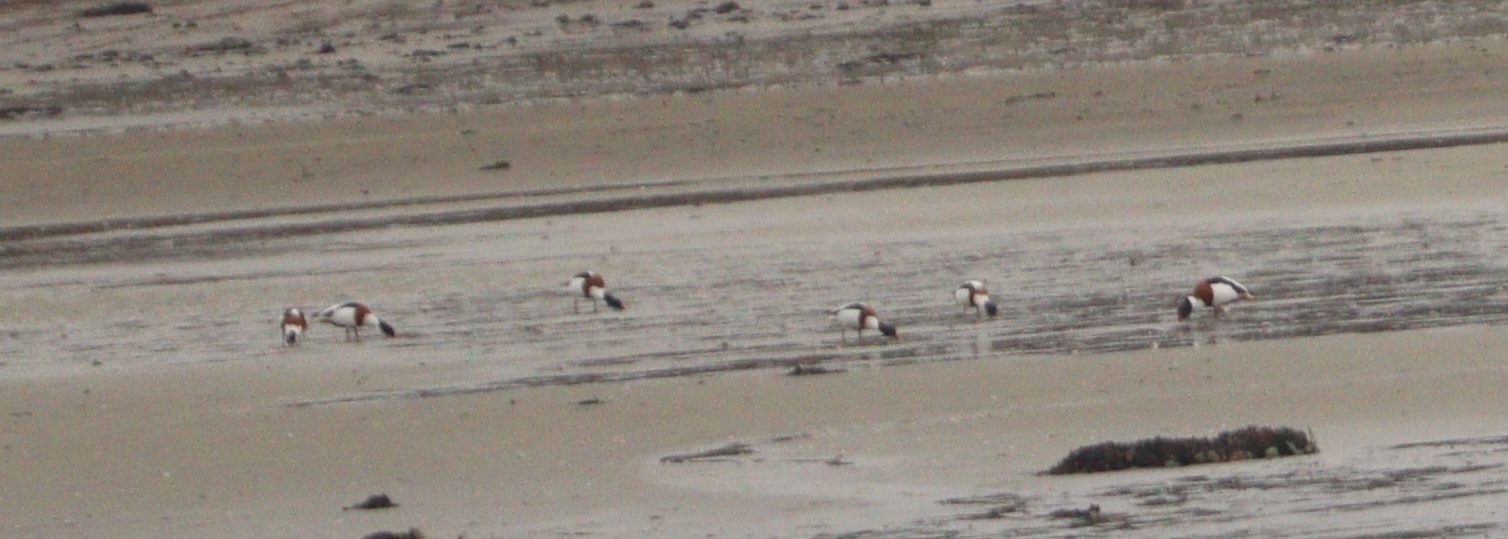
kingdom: Animalia
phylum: Chordata
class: Aves
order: Anseriformes
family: Anatidae
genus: Tadorna
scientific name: Tadorna tadorna
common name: Common shelduck
